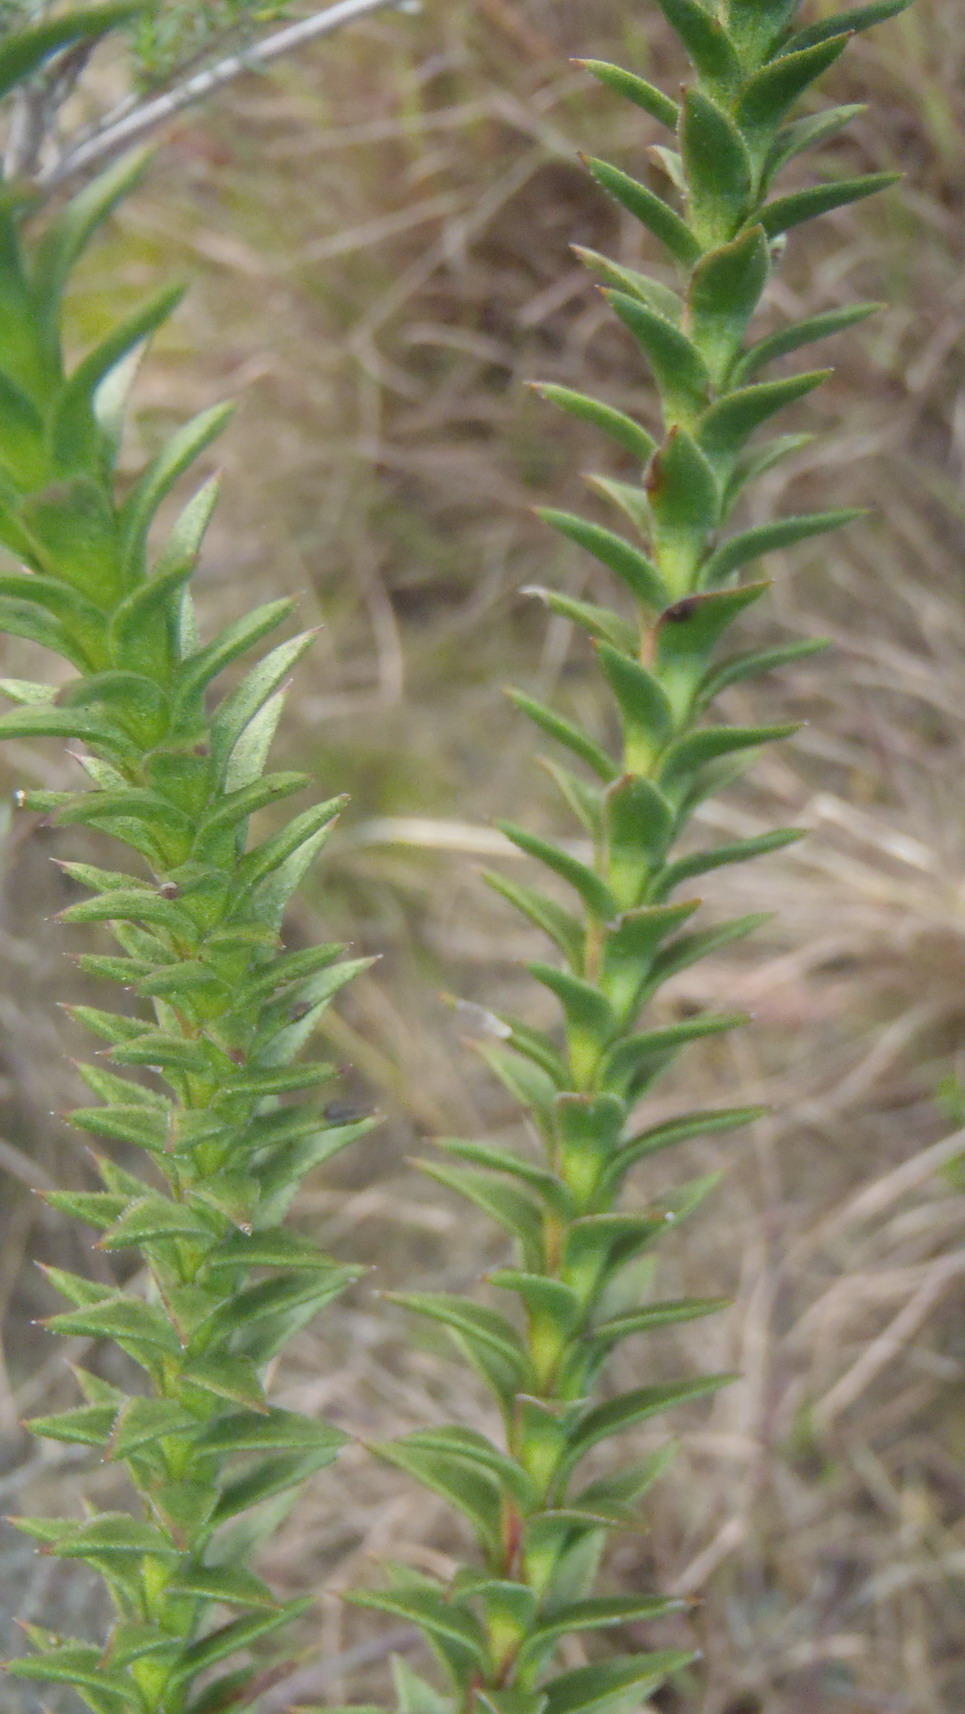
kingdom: Plantae
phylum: Tracheophyta
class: Magnoliopsida
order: Asterales
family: Asteraceae
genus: Oedera
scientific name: Oedera imbricata
